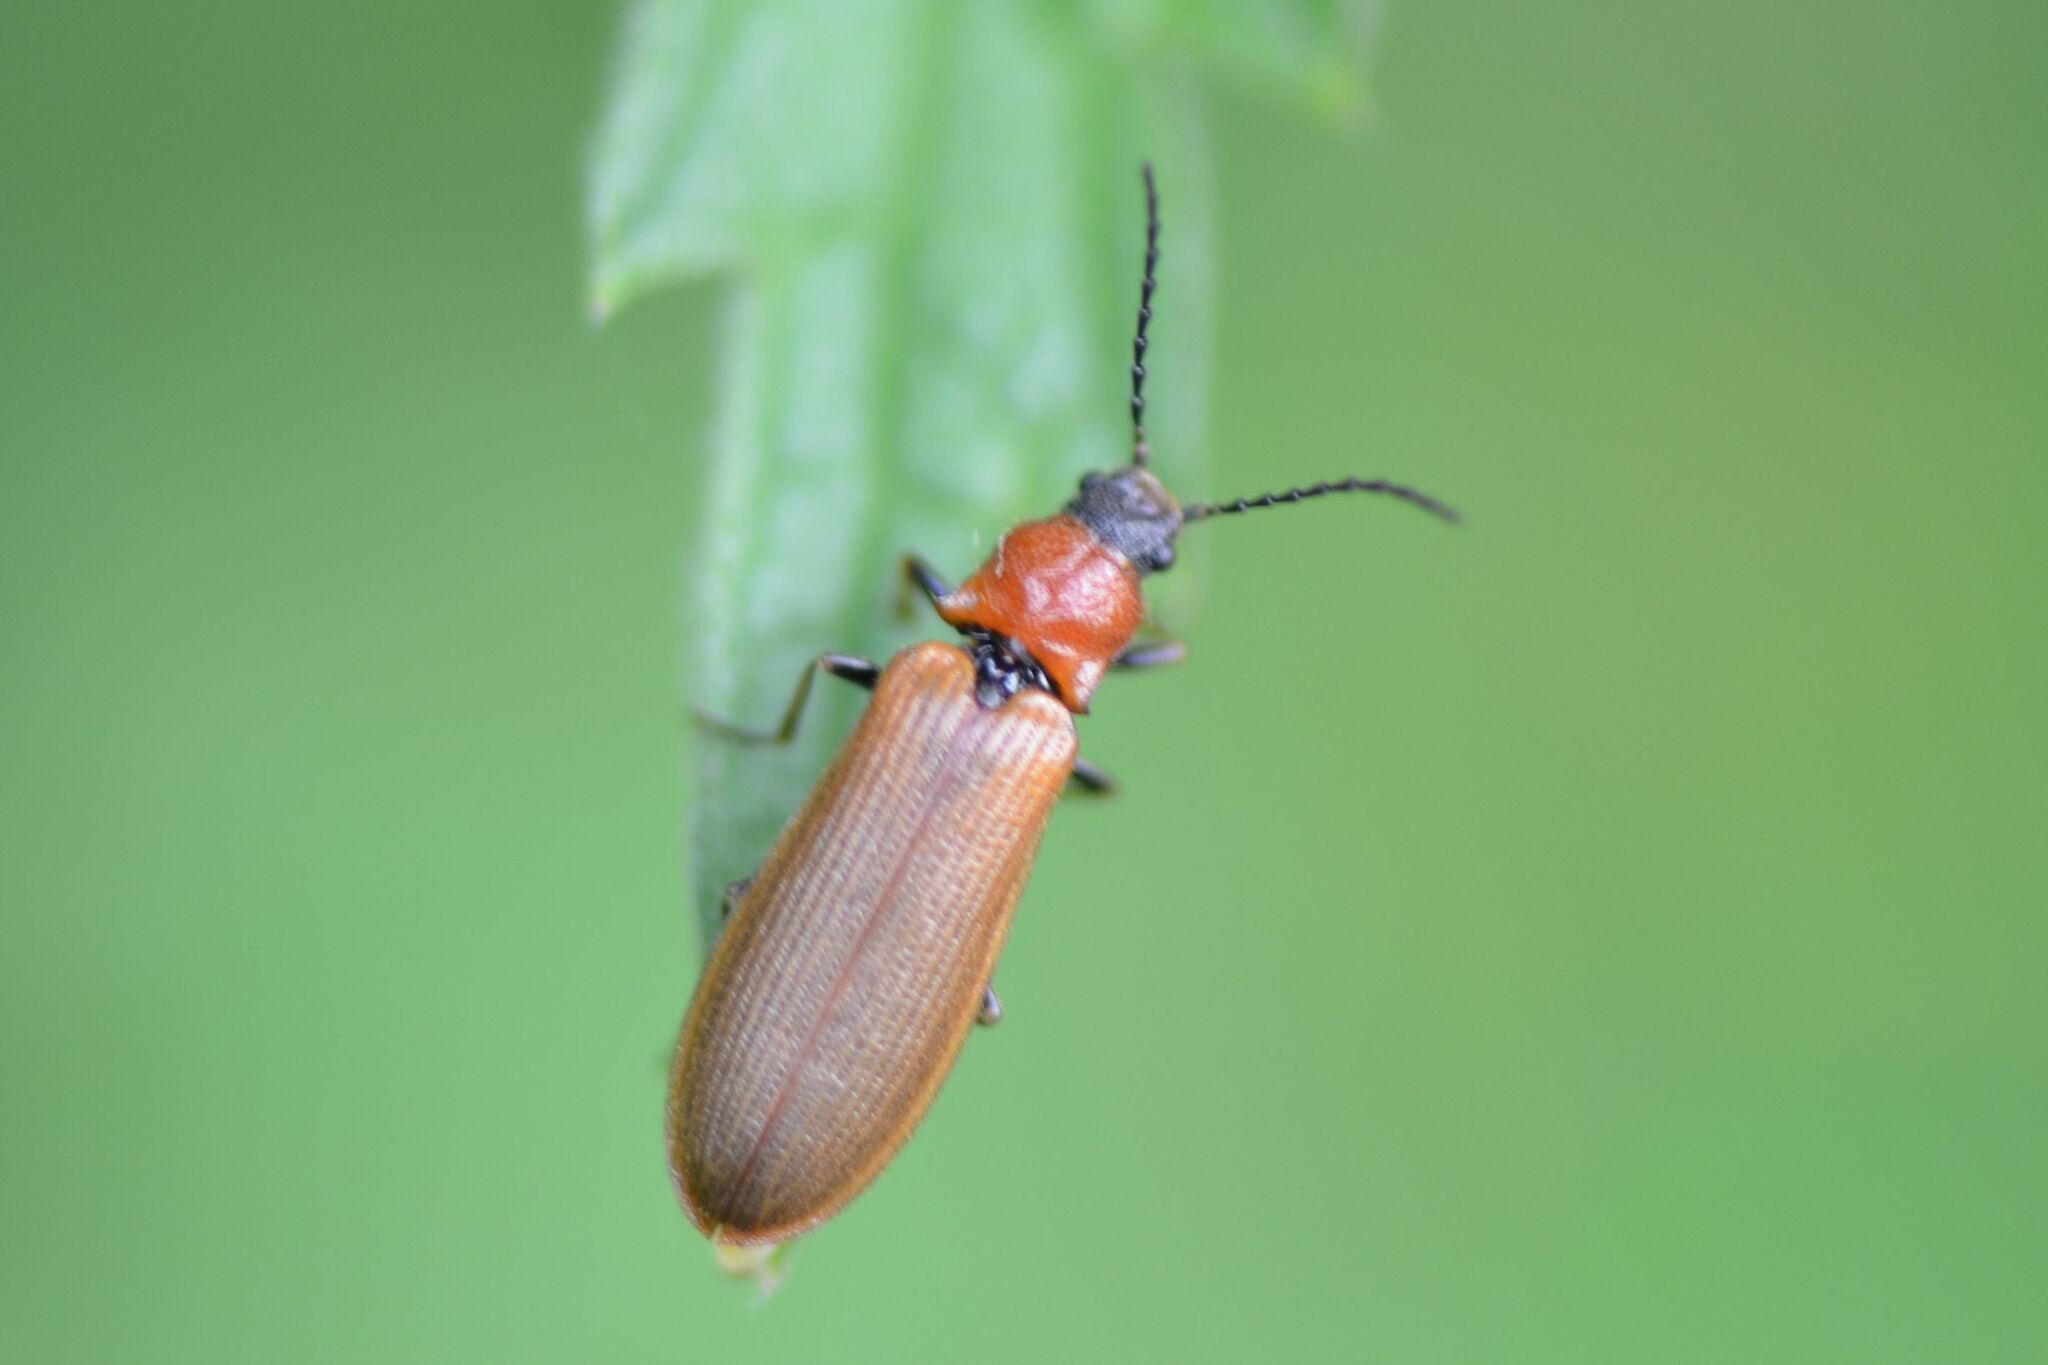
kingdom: Animalia
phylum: Arthropoda
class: Insecta
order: Coleoptera
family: Elateridae
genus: Denticollis
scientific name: Denticollis linearis
